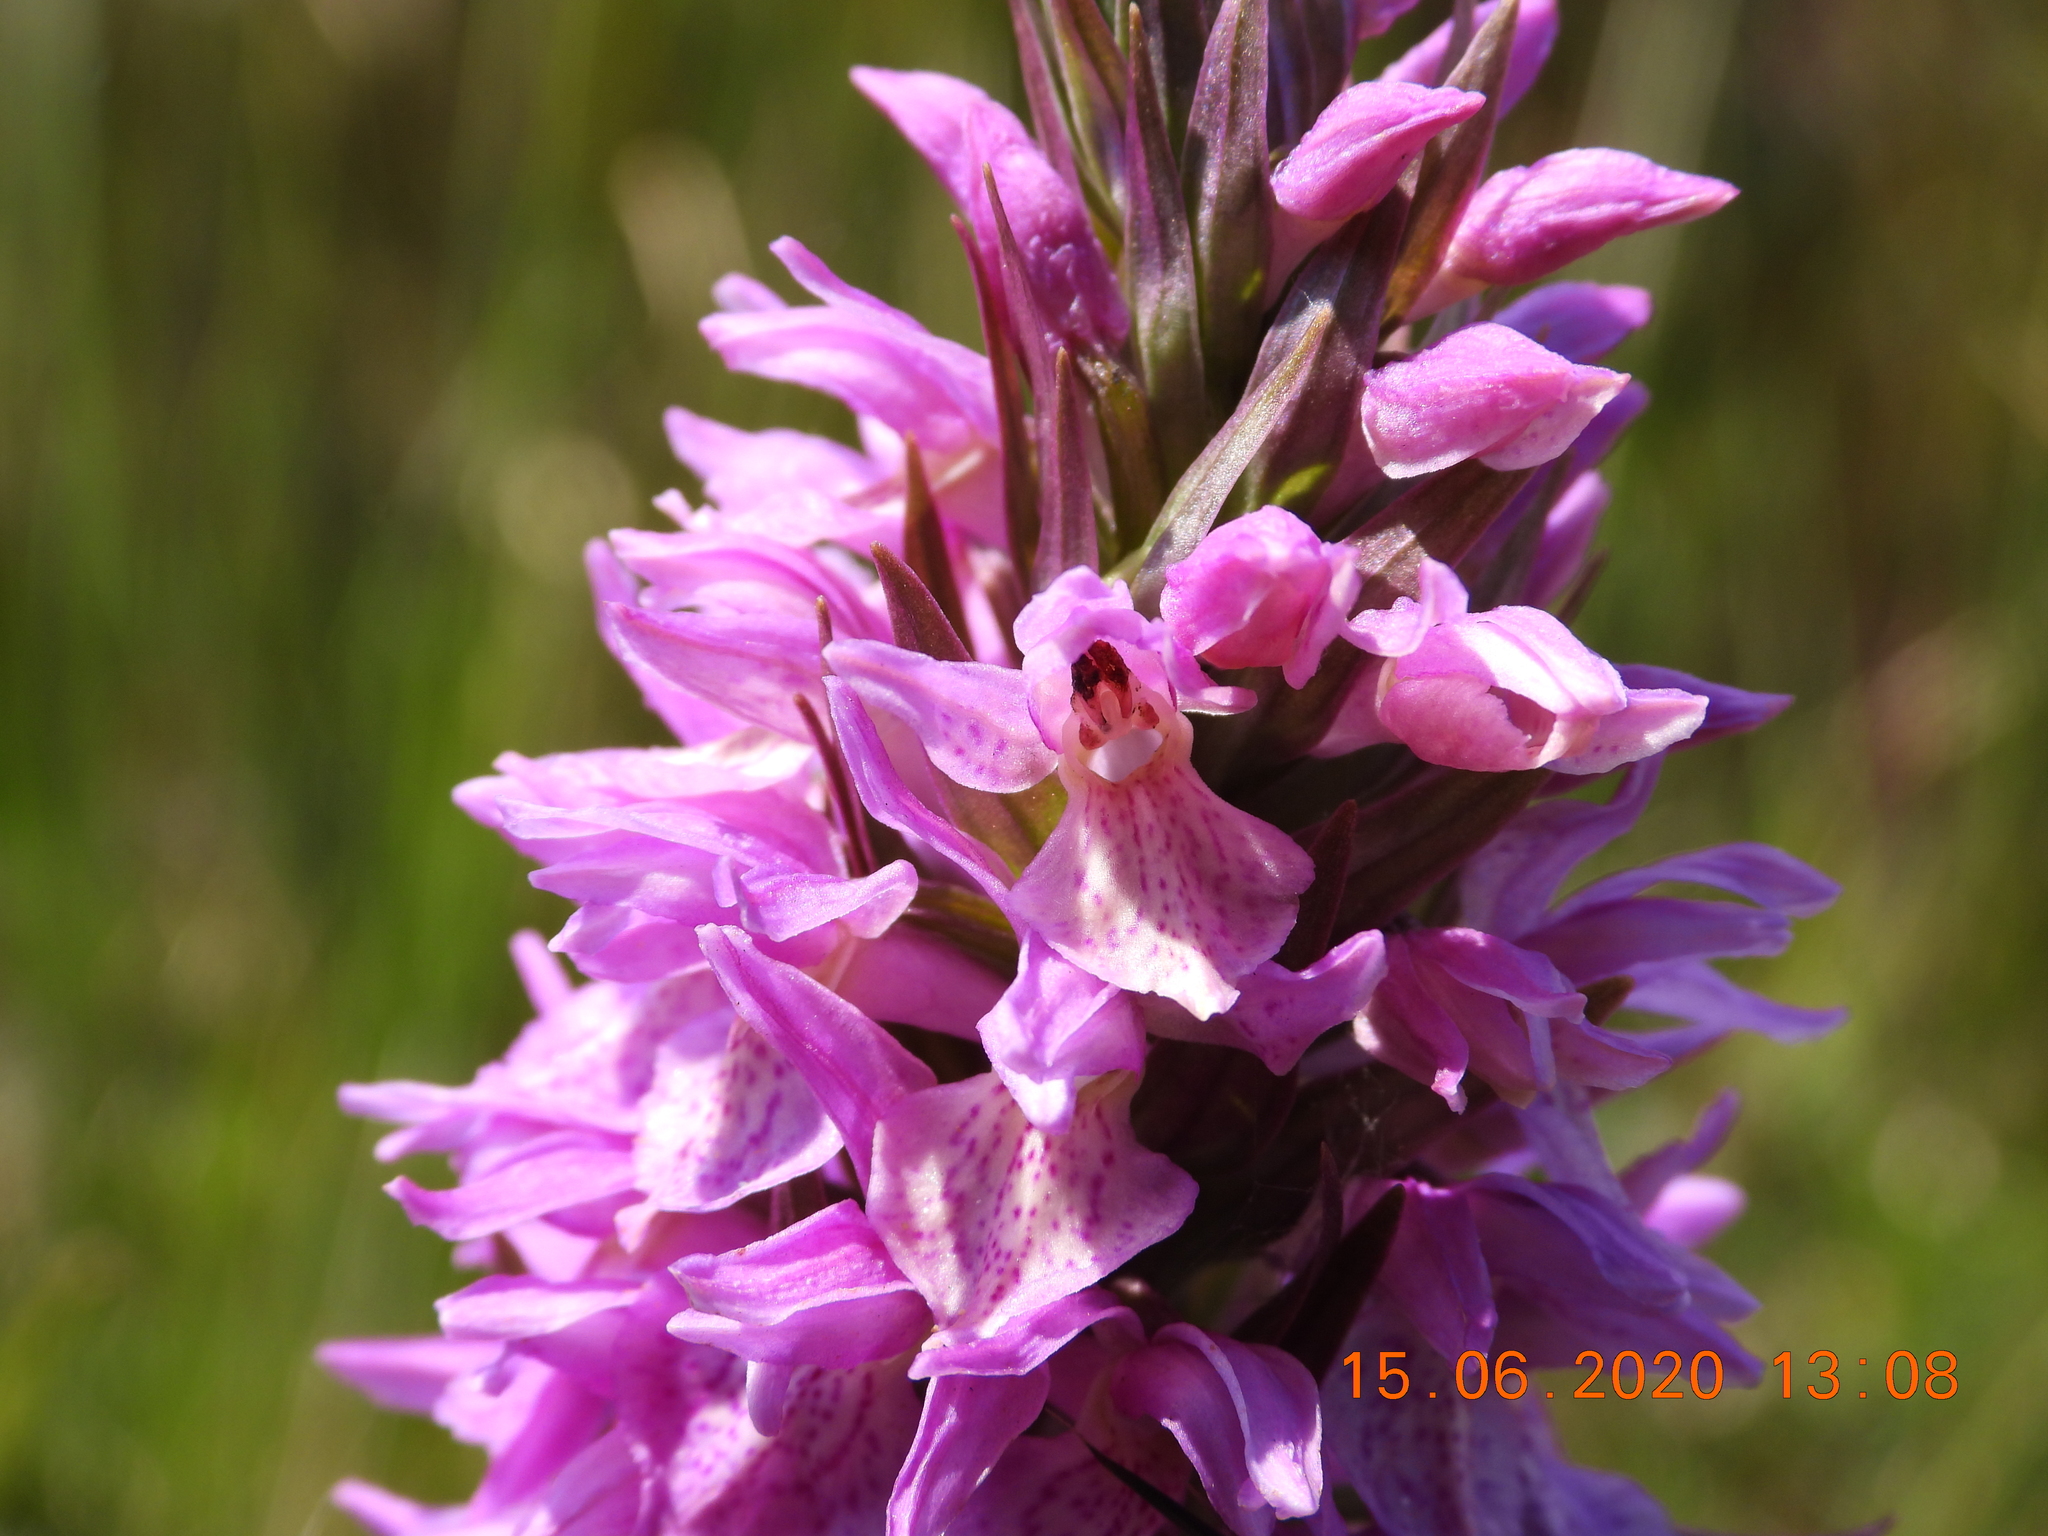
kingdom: Plantae
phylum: Tracheophyta
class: Liliopsida
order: Asparagales
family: Orchidaceae
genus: Dactylorhiza
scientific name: Dactylorhiza majalis
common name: Marsh orchid
